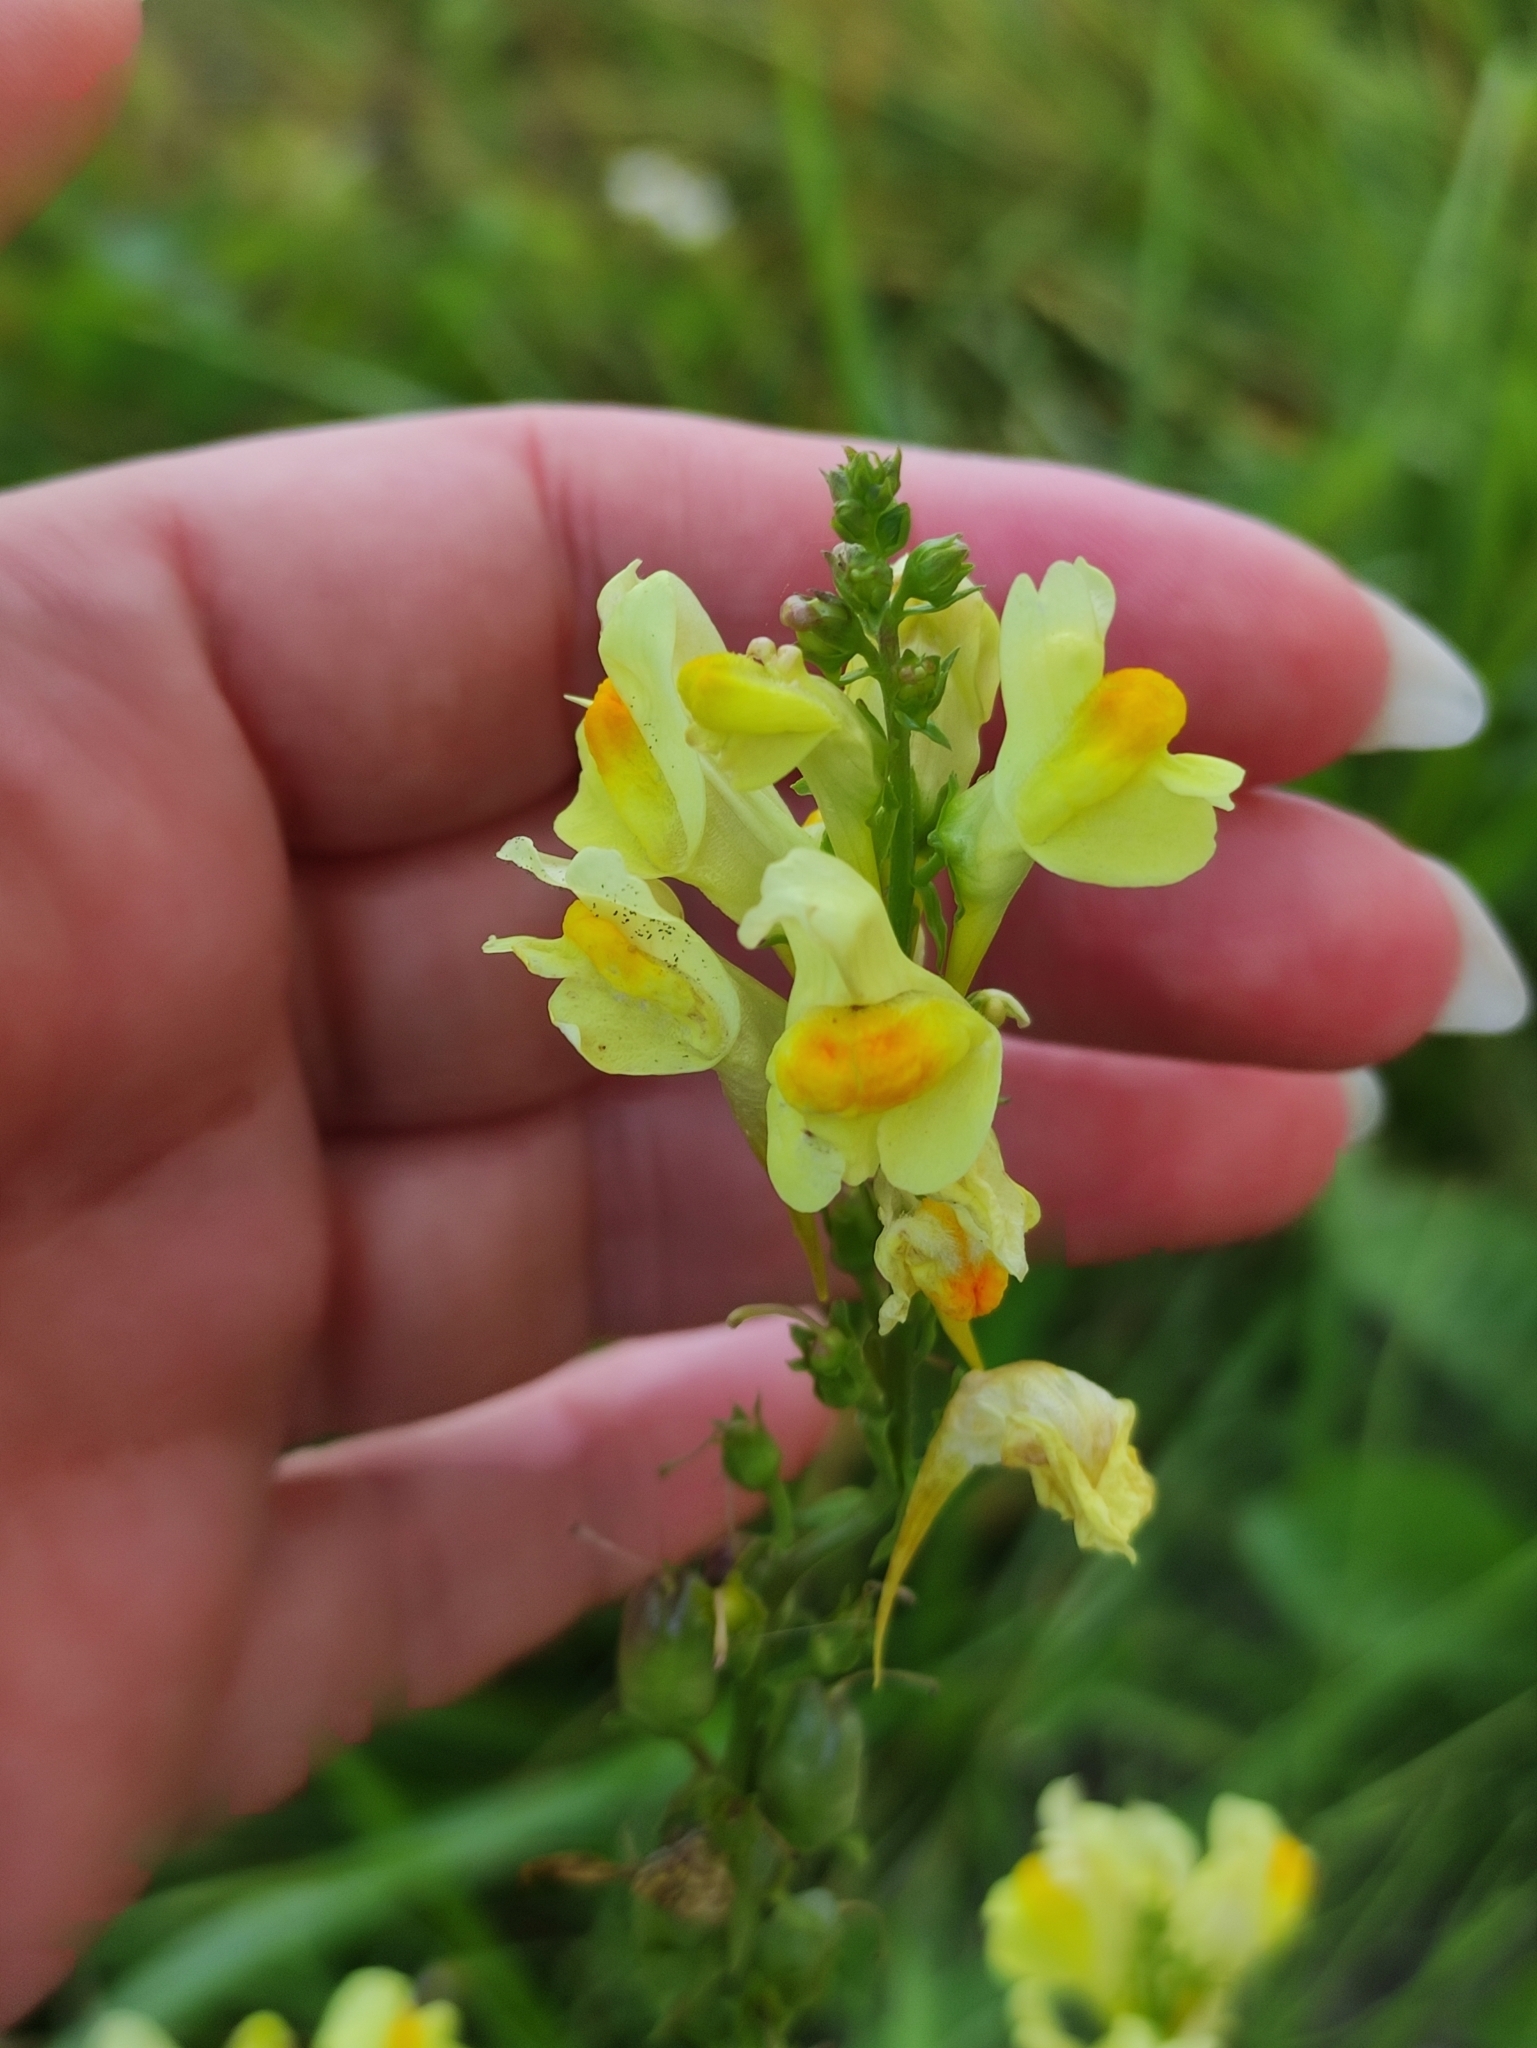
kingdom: Plantae
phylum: Tracheophyta
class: Magnoliopsida
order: Lamiales
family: Plantaginaceae
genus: Linaria
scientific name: Linaria vulgaris
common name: Butter and eggs
